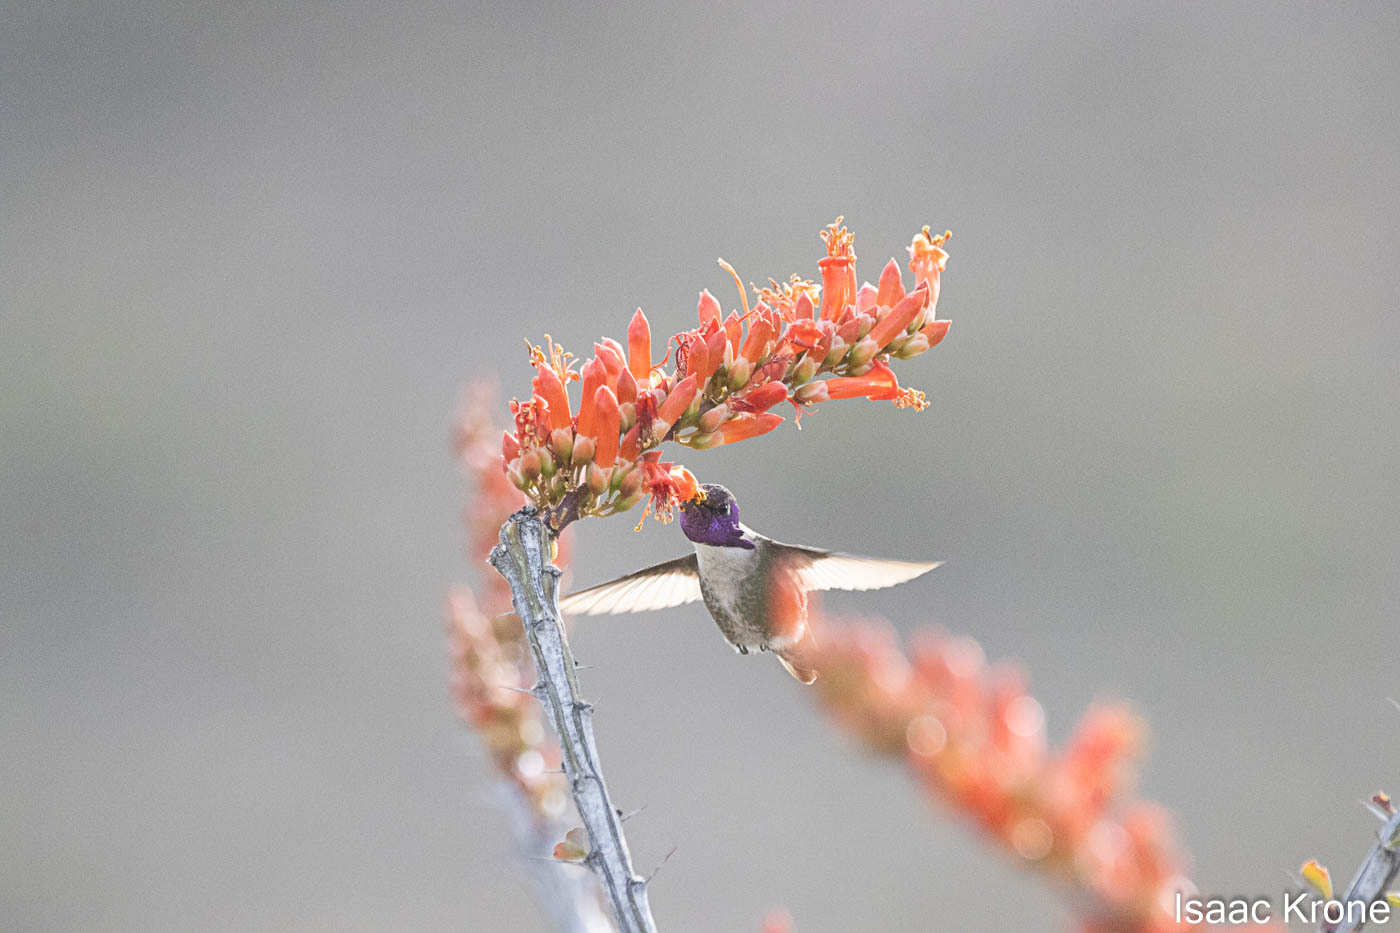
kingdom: Plantae
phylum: Tracheophyta
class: Magnoliopsida
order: Ericales
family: Fouquieriaceae
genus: Fouquieria
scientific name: Fouquieria splendens
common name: Vine-cactus
